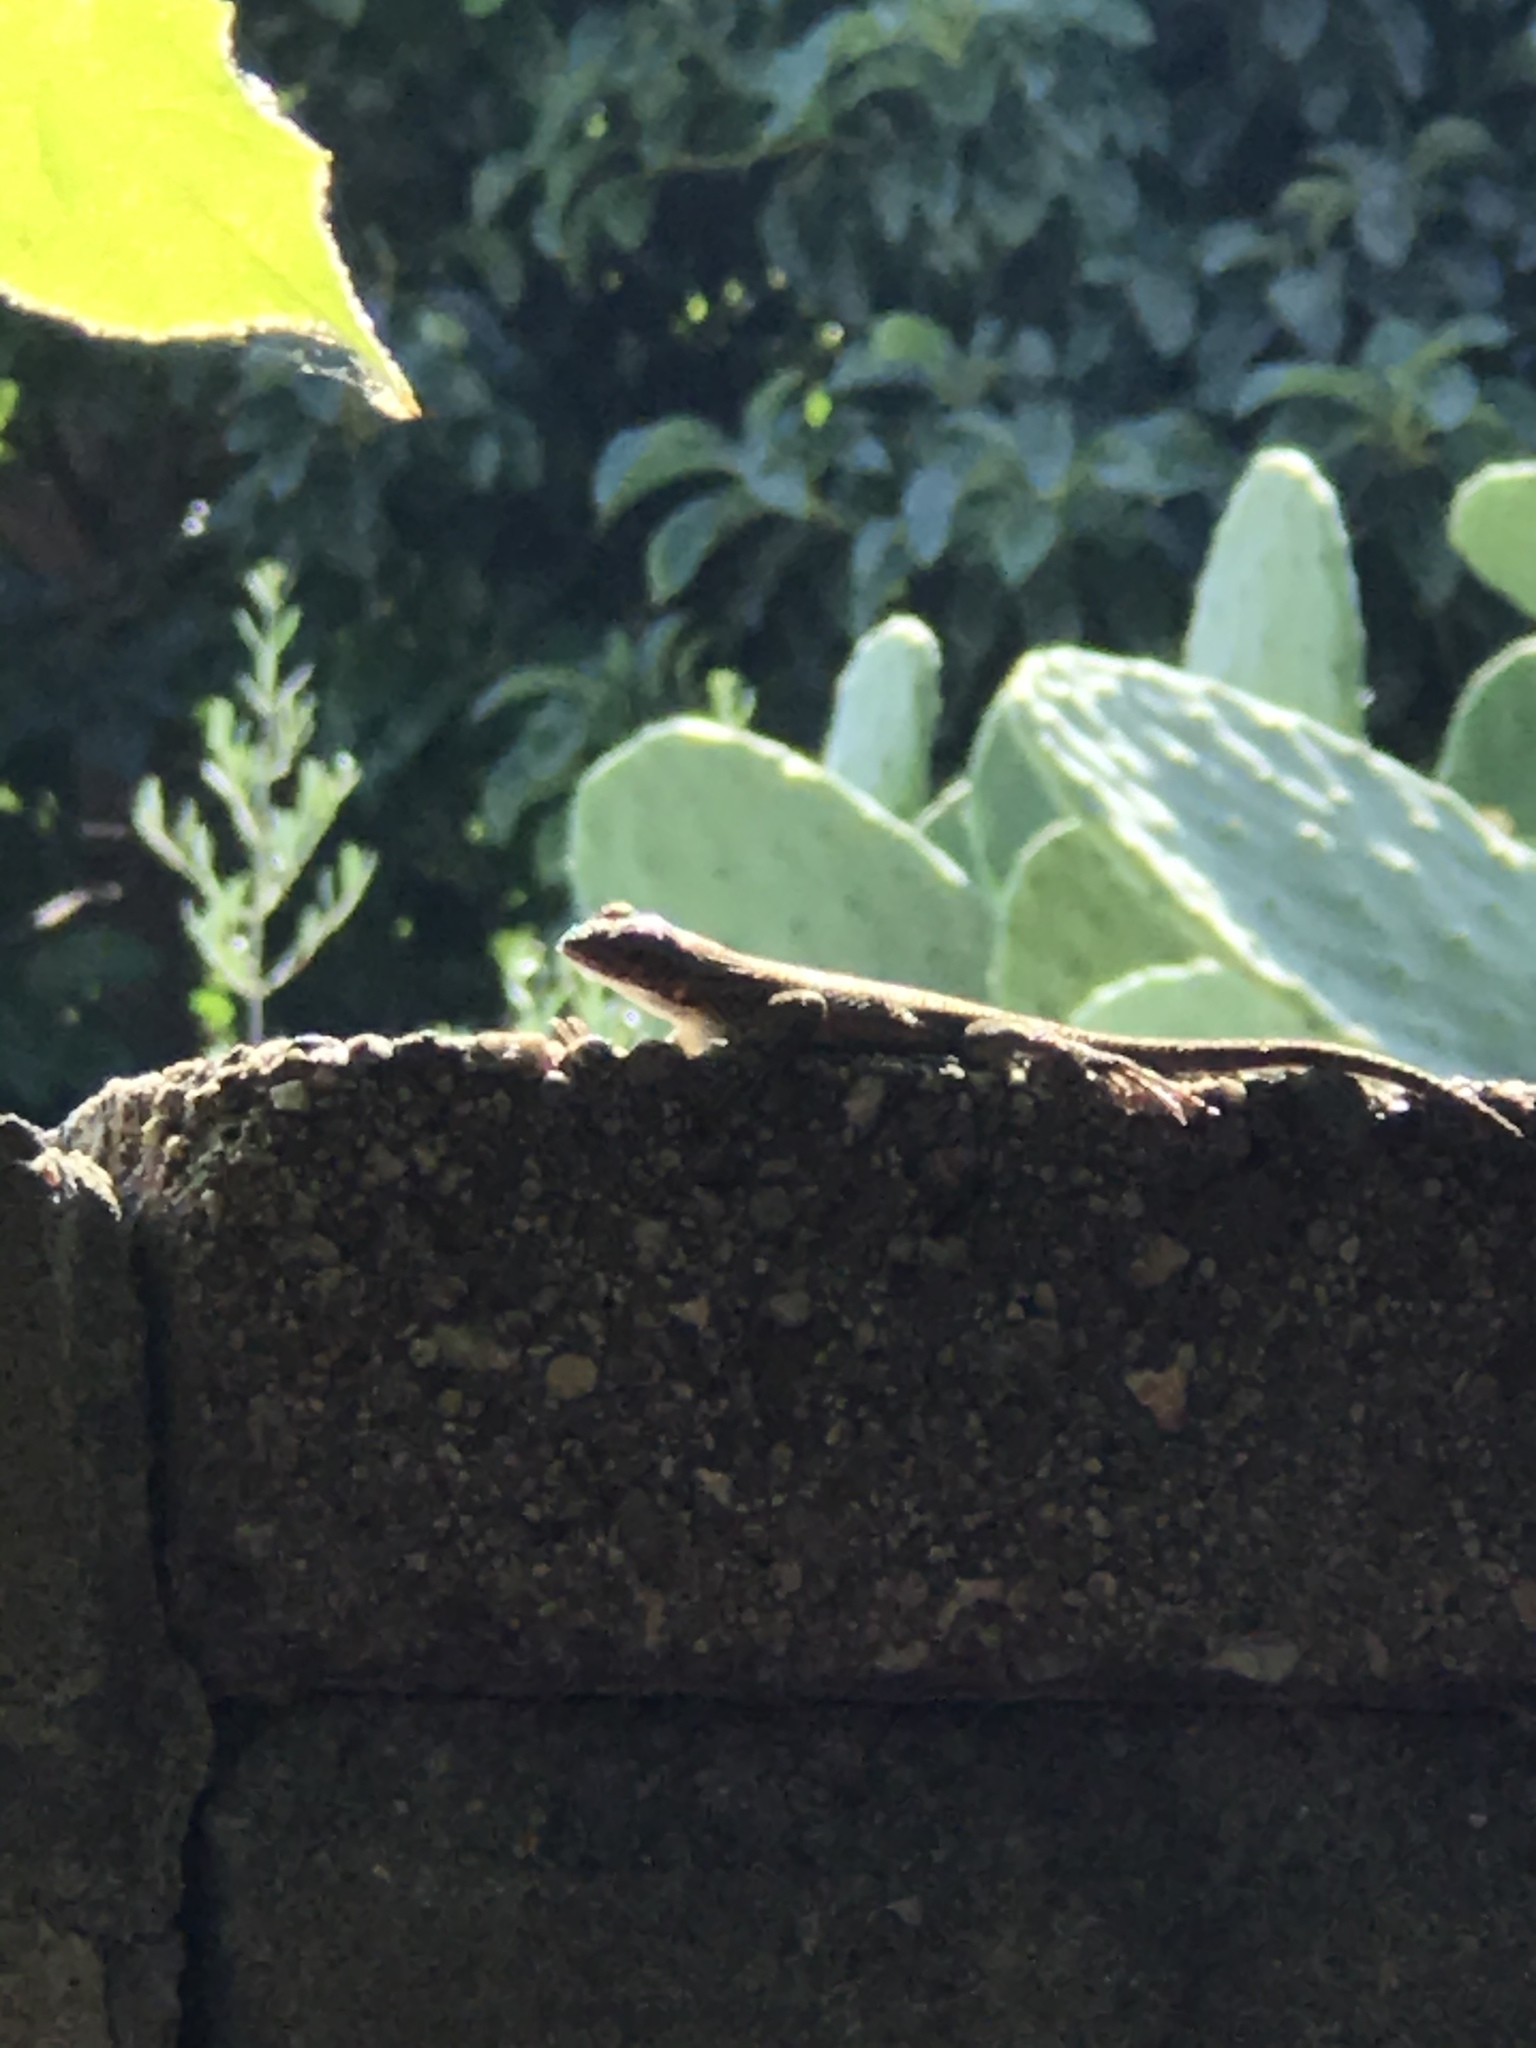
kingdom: Animalia
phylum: Chordata
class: Squamata
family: Phrynosomatidae
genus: Sceloporus
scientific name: Sceloporus occidentalis
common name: Western fence lizard
